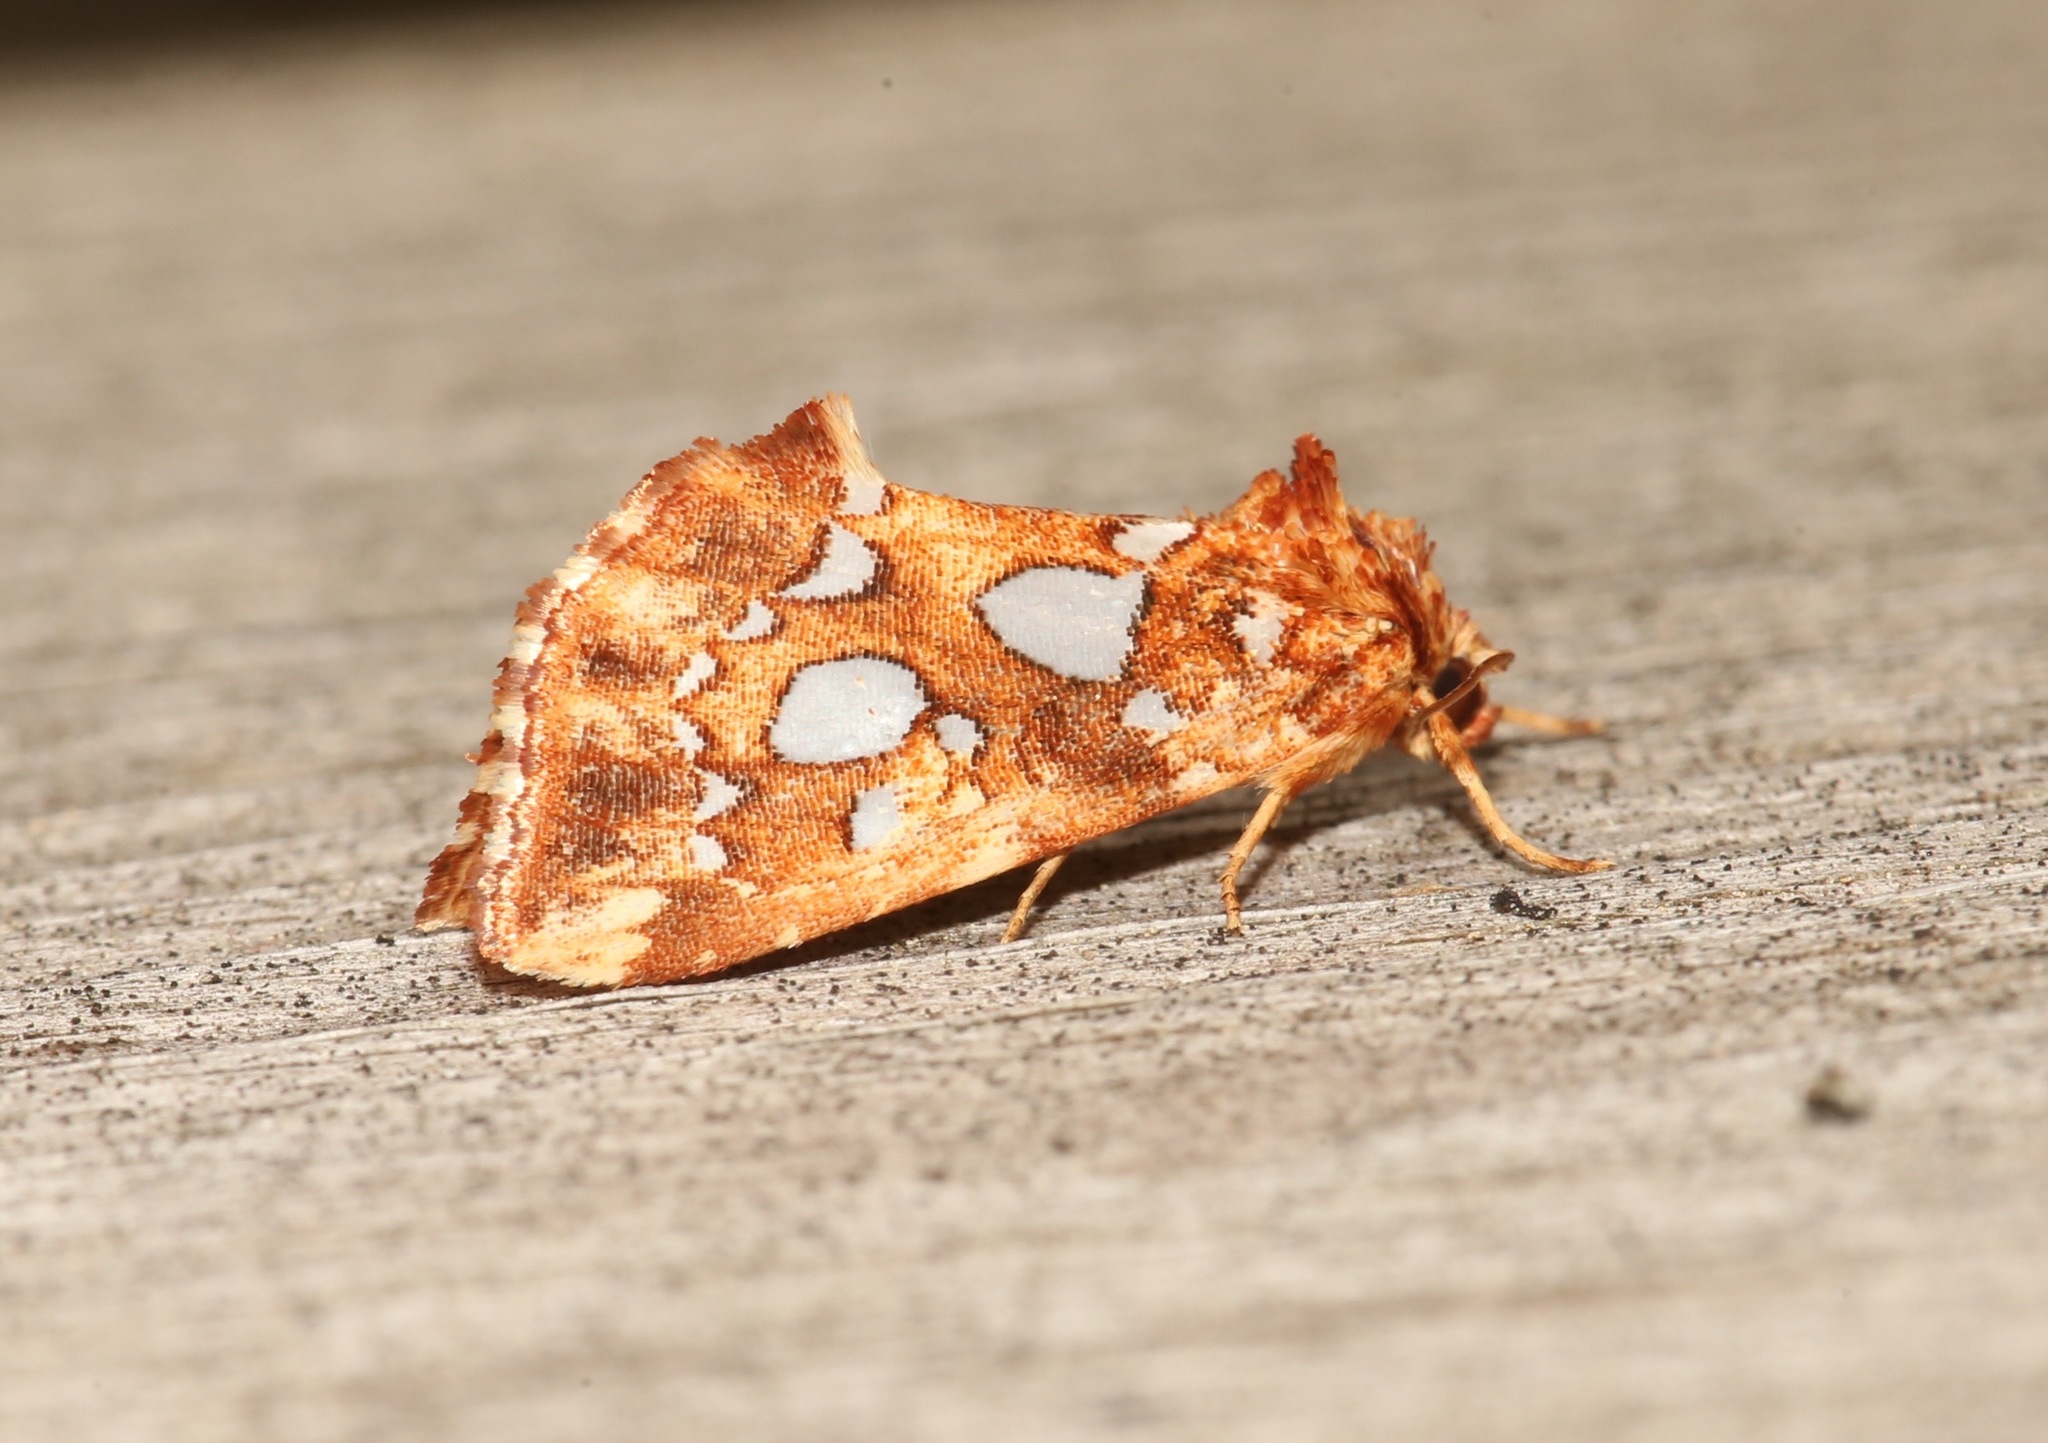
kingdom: Animalia
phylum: Arthropoda
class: Insecta
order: Lepidoptera
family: Noctuidae
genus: Callopistria
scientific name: Callopistria cordata
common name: Silver-spotted fern moth
